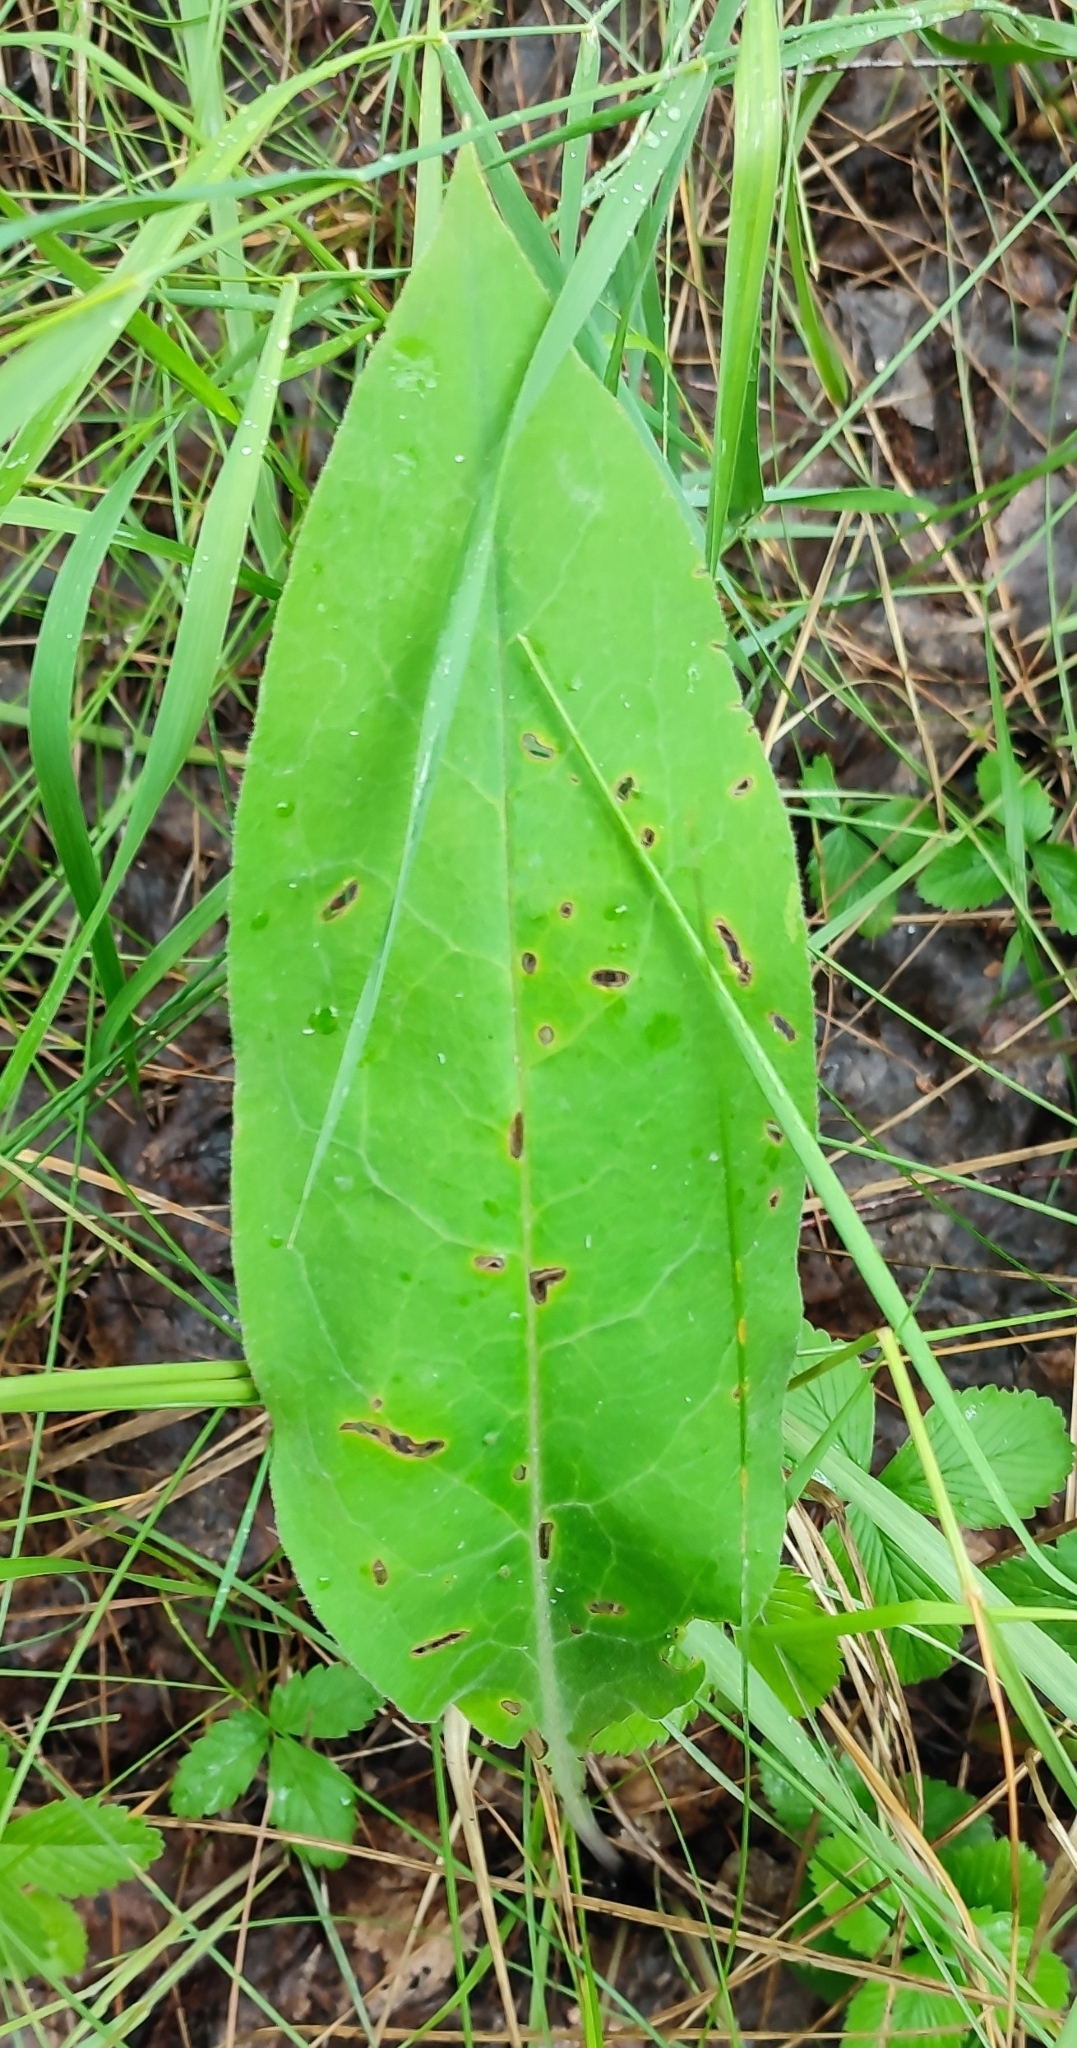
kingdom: Plantae
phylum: Tracheophyta
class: Magnoliopsida
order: Boraginales
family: Boraginaceae
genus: Pulmonaria
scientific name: Pulmonaria mollis
